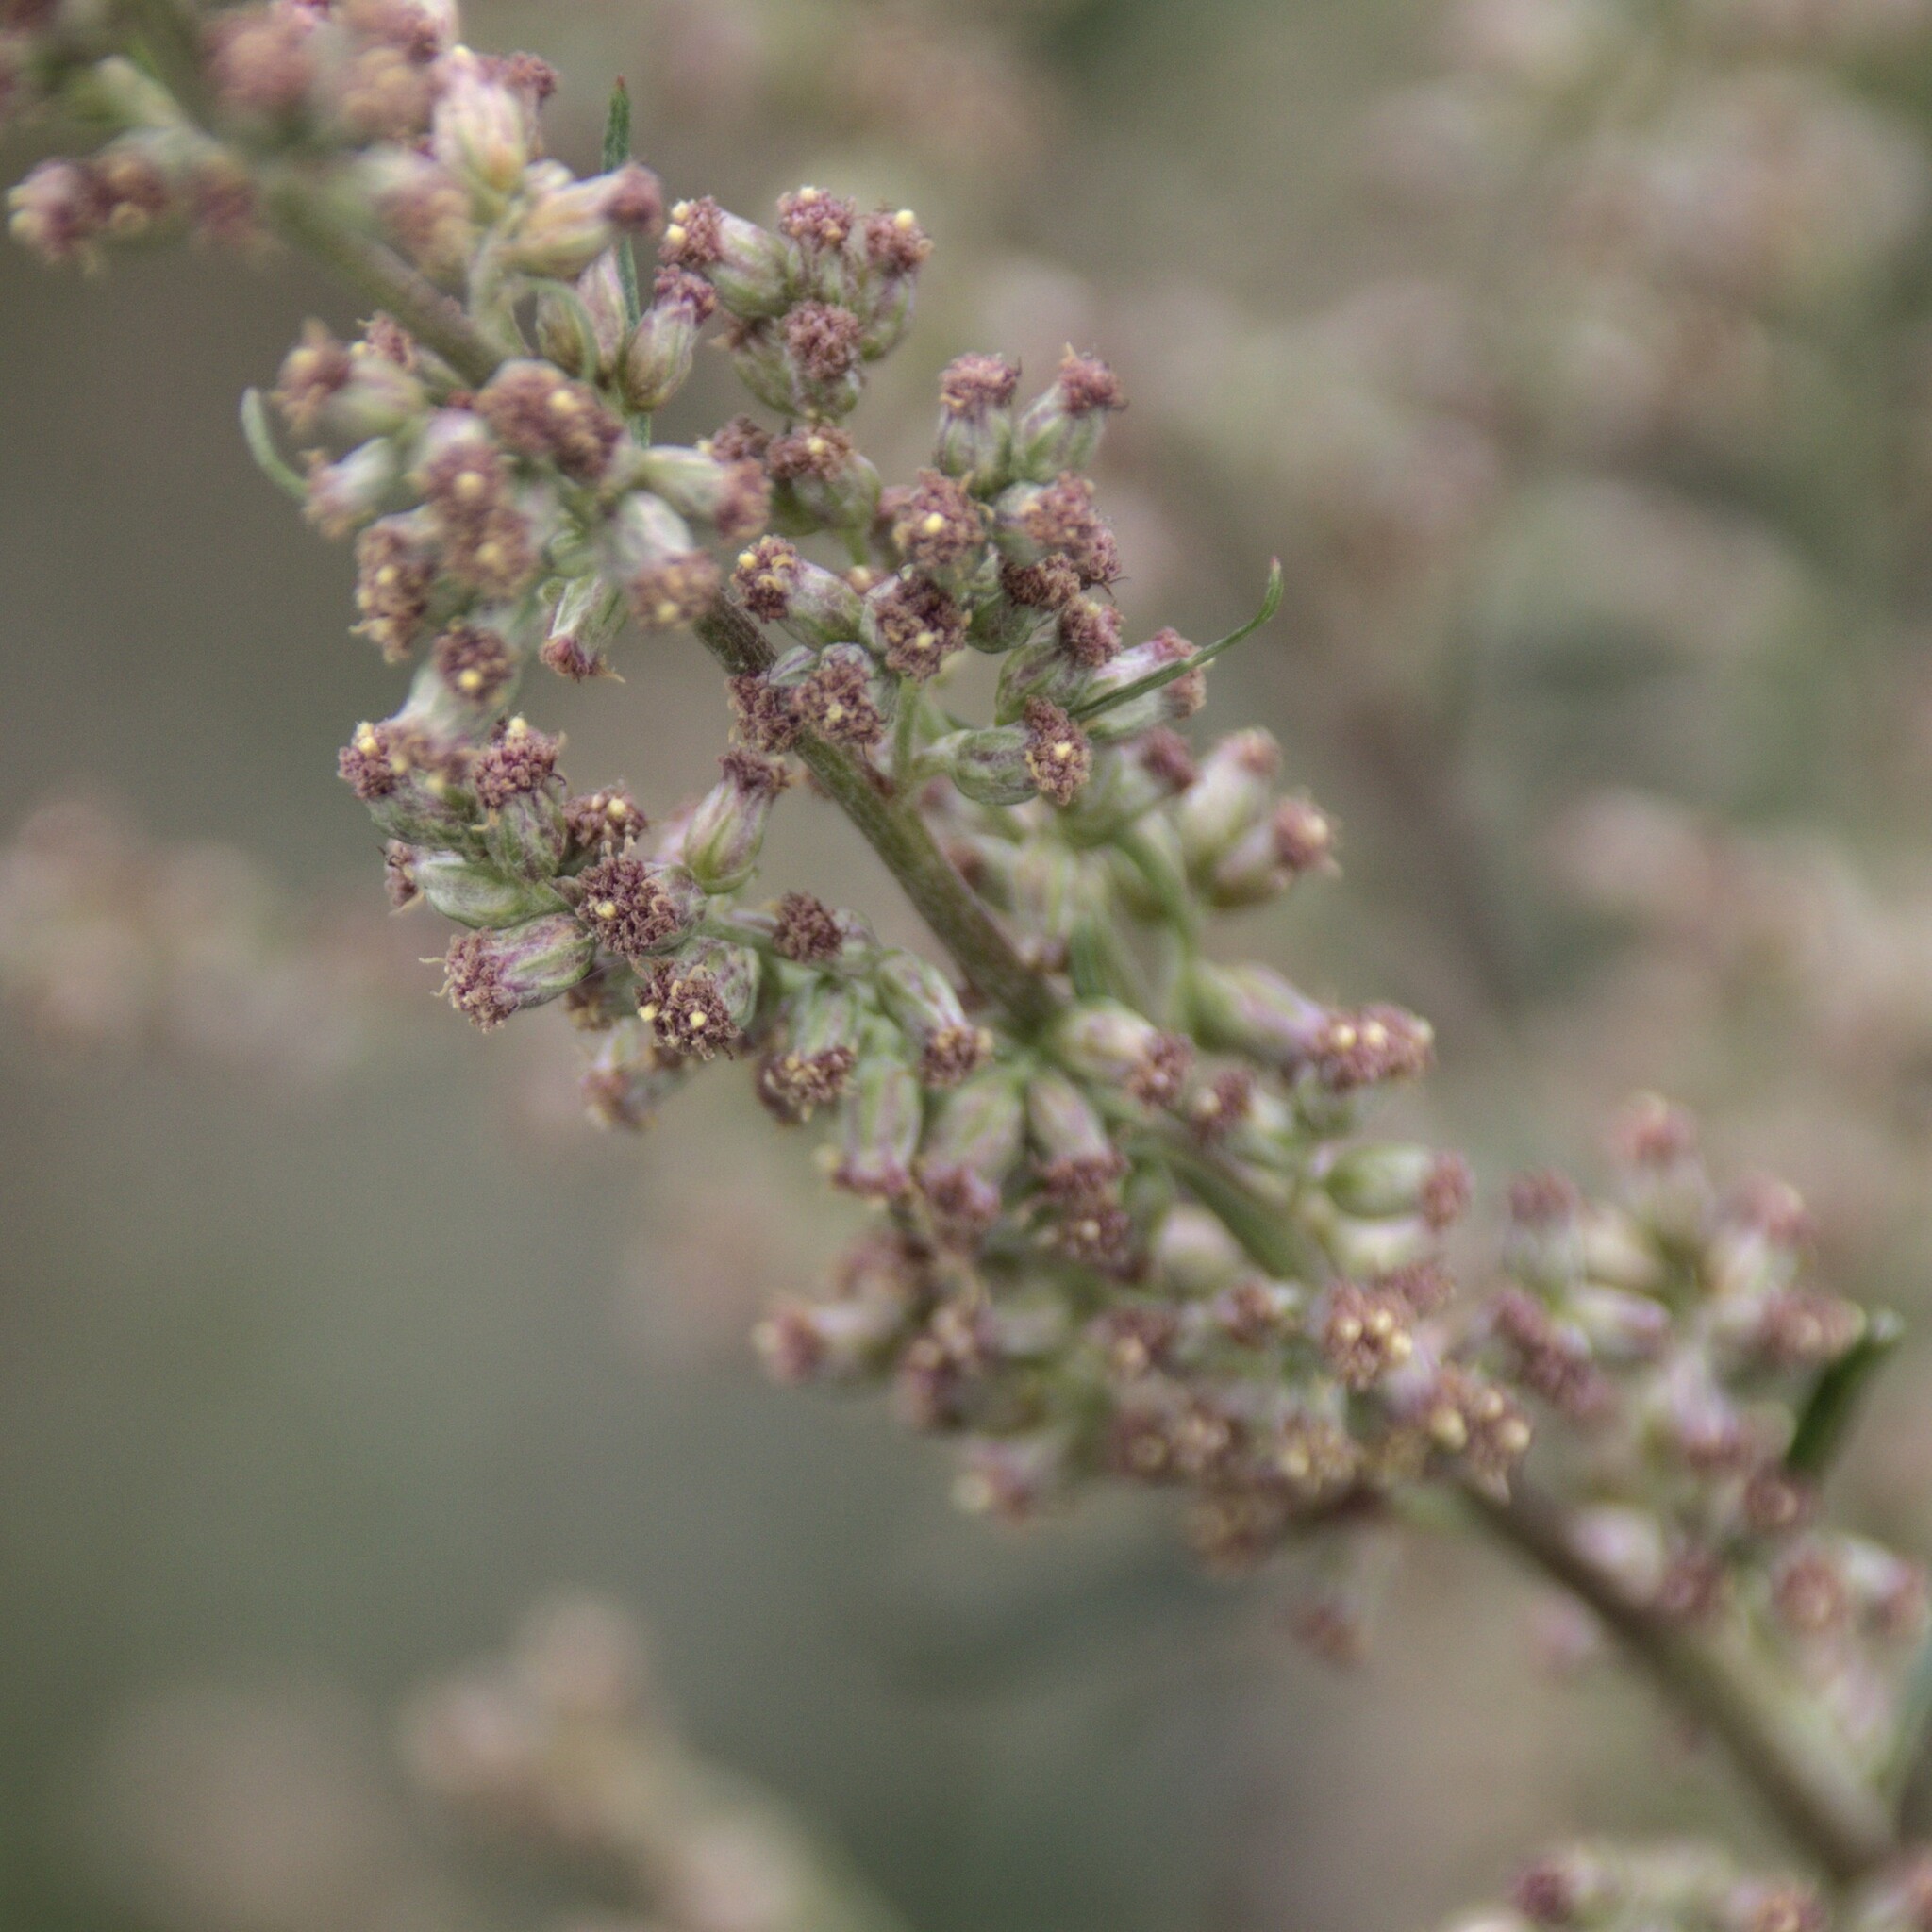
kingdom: Plantae
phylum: Tracheophyta
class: Magnoliopsida
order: Asterales
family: Asteraceae
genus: Artemisia
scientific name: Artemisia vulgaris
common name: Mugwort
